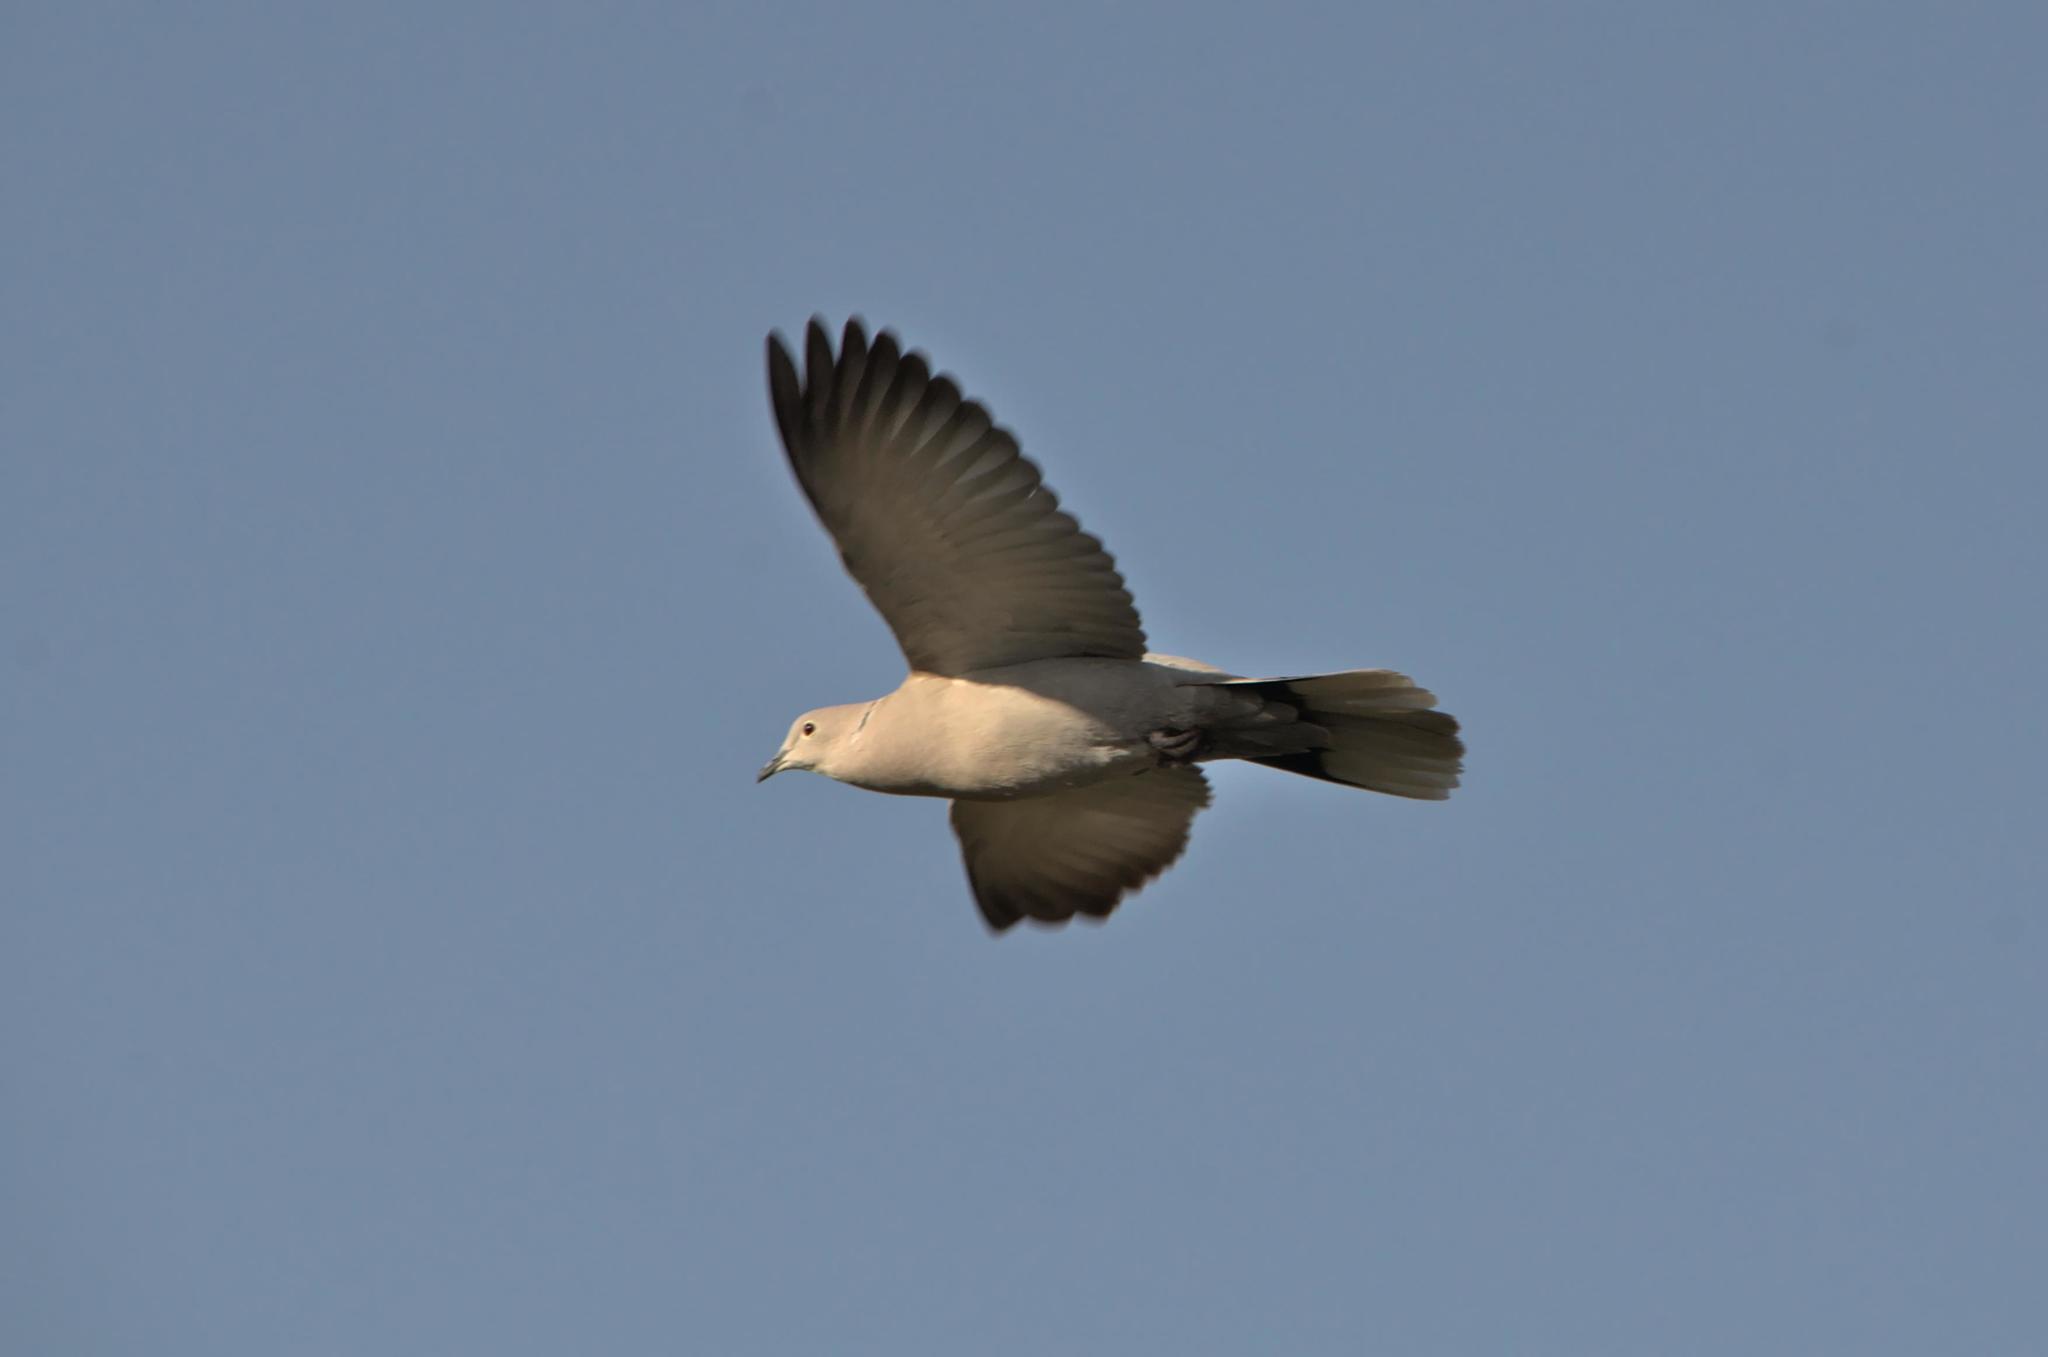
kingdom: Animalia
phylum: Chordata
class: Aves
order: Columbiformes
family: Columbidae
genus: Streptopelia
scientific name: Streptopelia decaocto
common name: Eurasian collared dove
